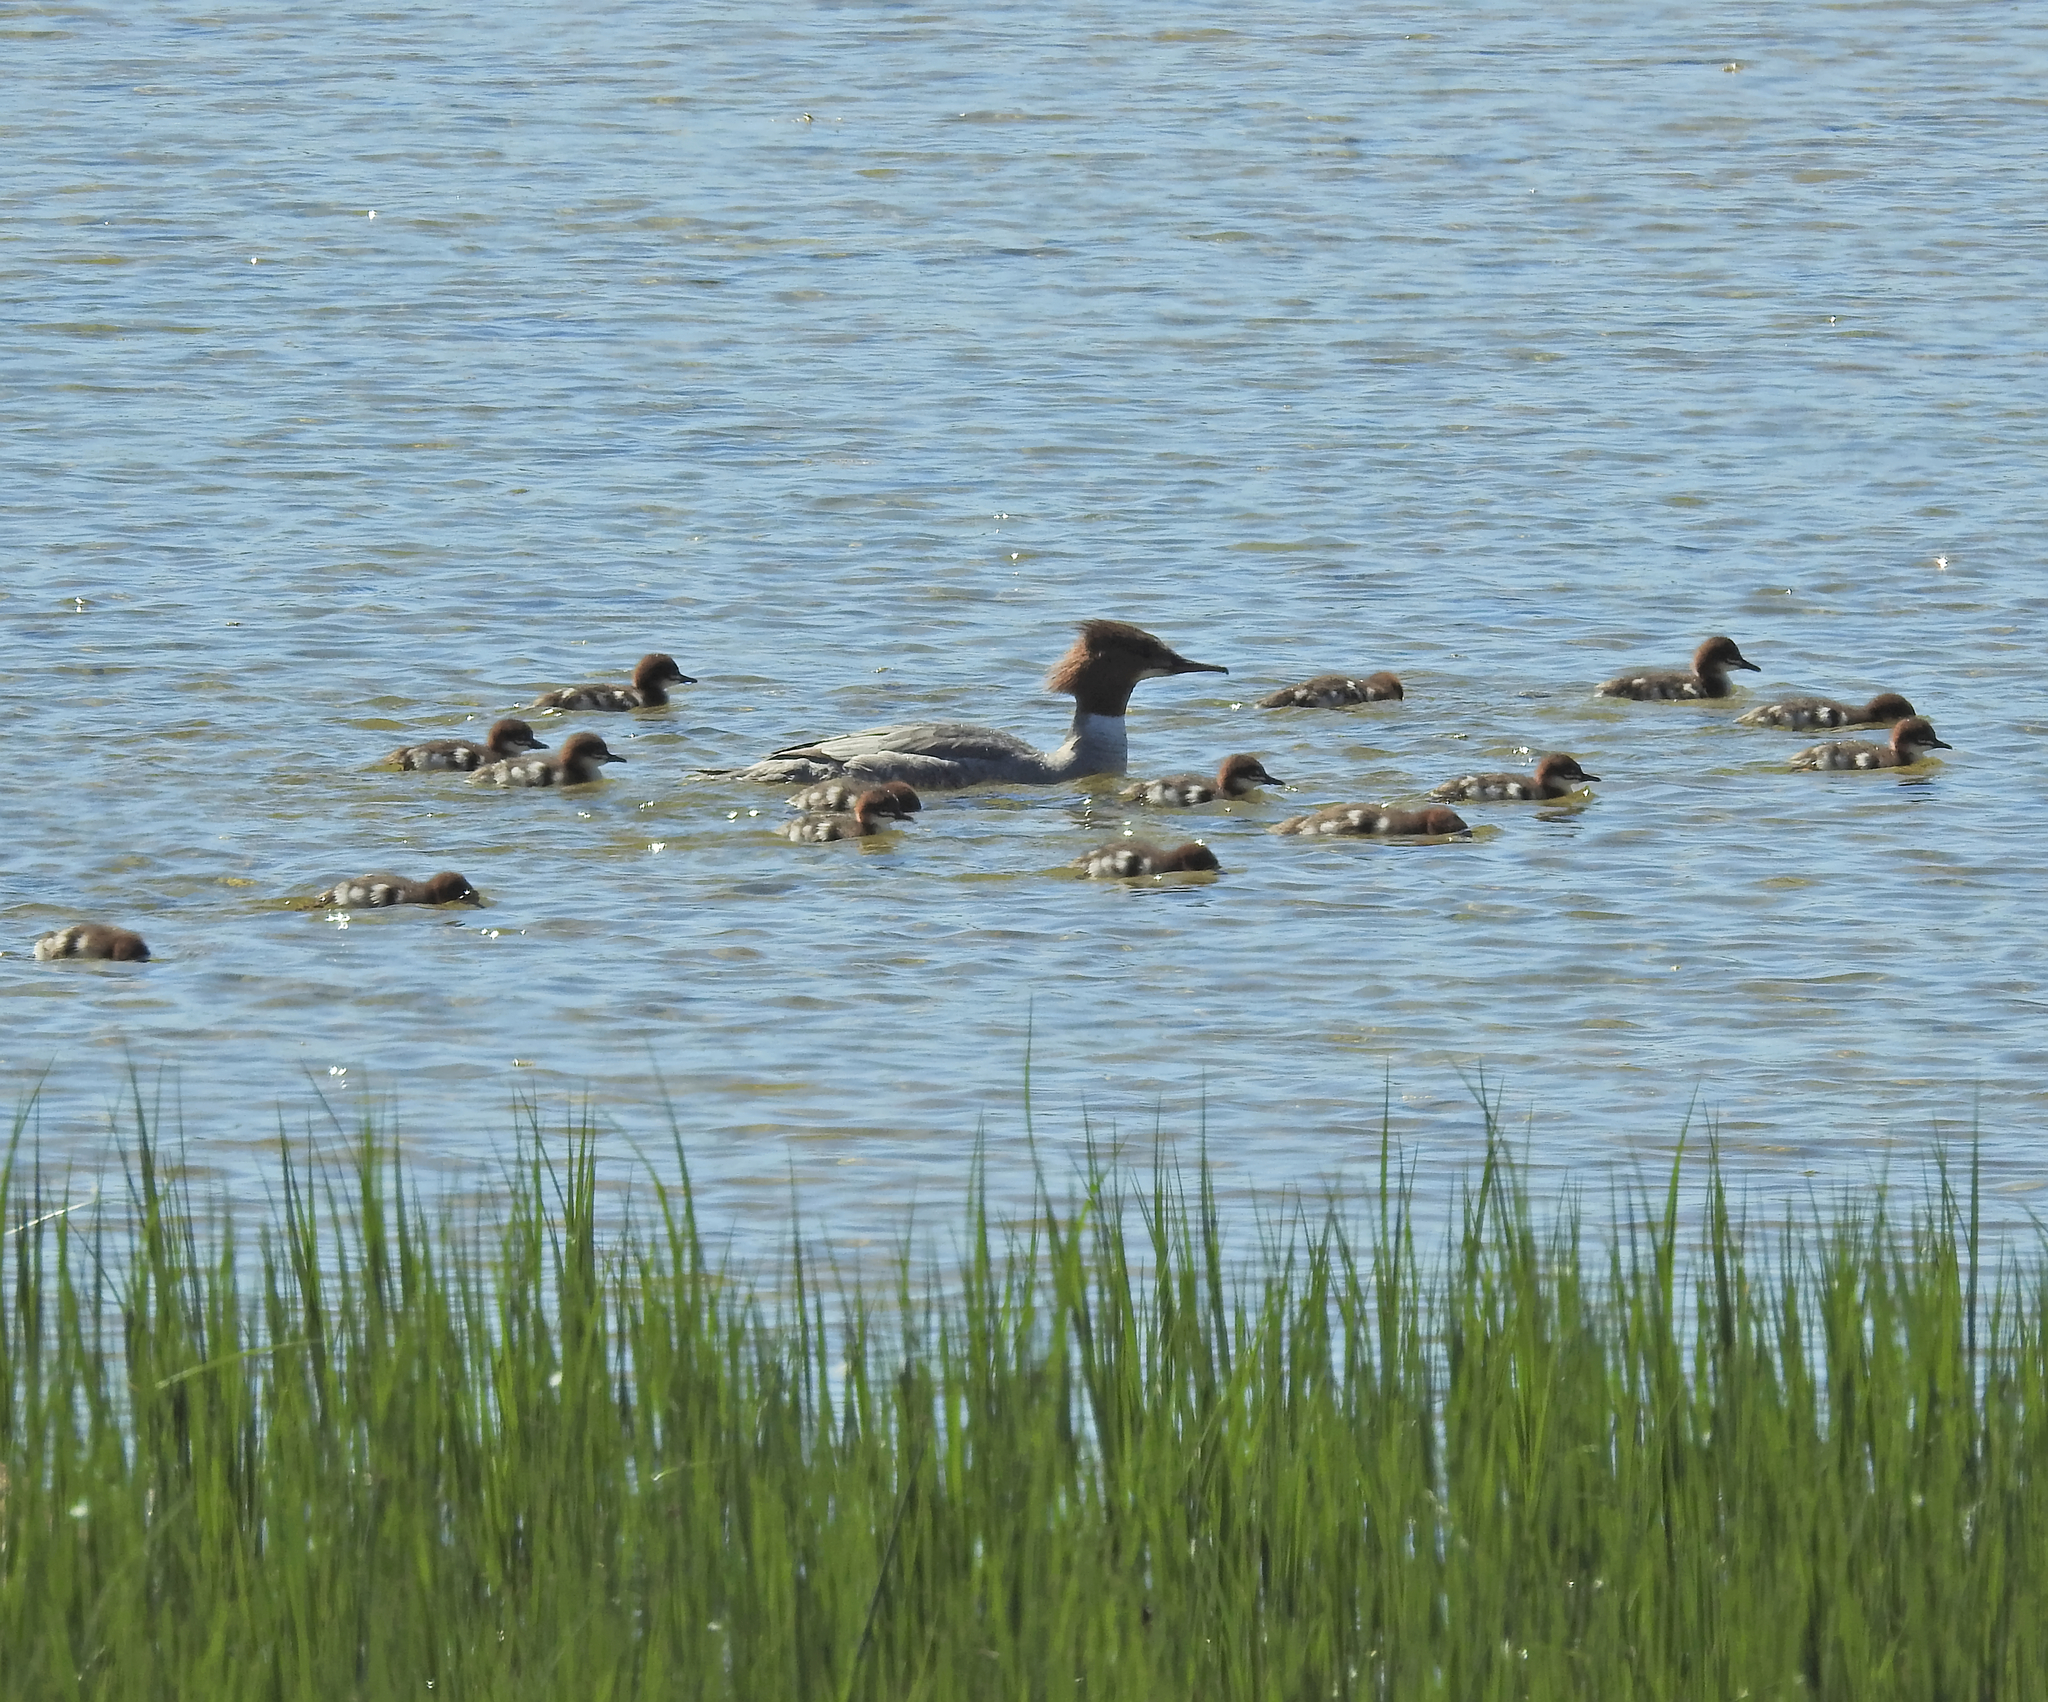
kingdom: Animalia
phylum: Chordata
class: Aves
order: Anseriformes
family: Anatidae
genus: Mergus
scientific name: Mergus merganser
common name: Common merganser
